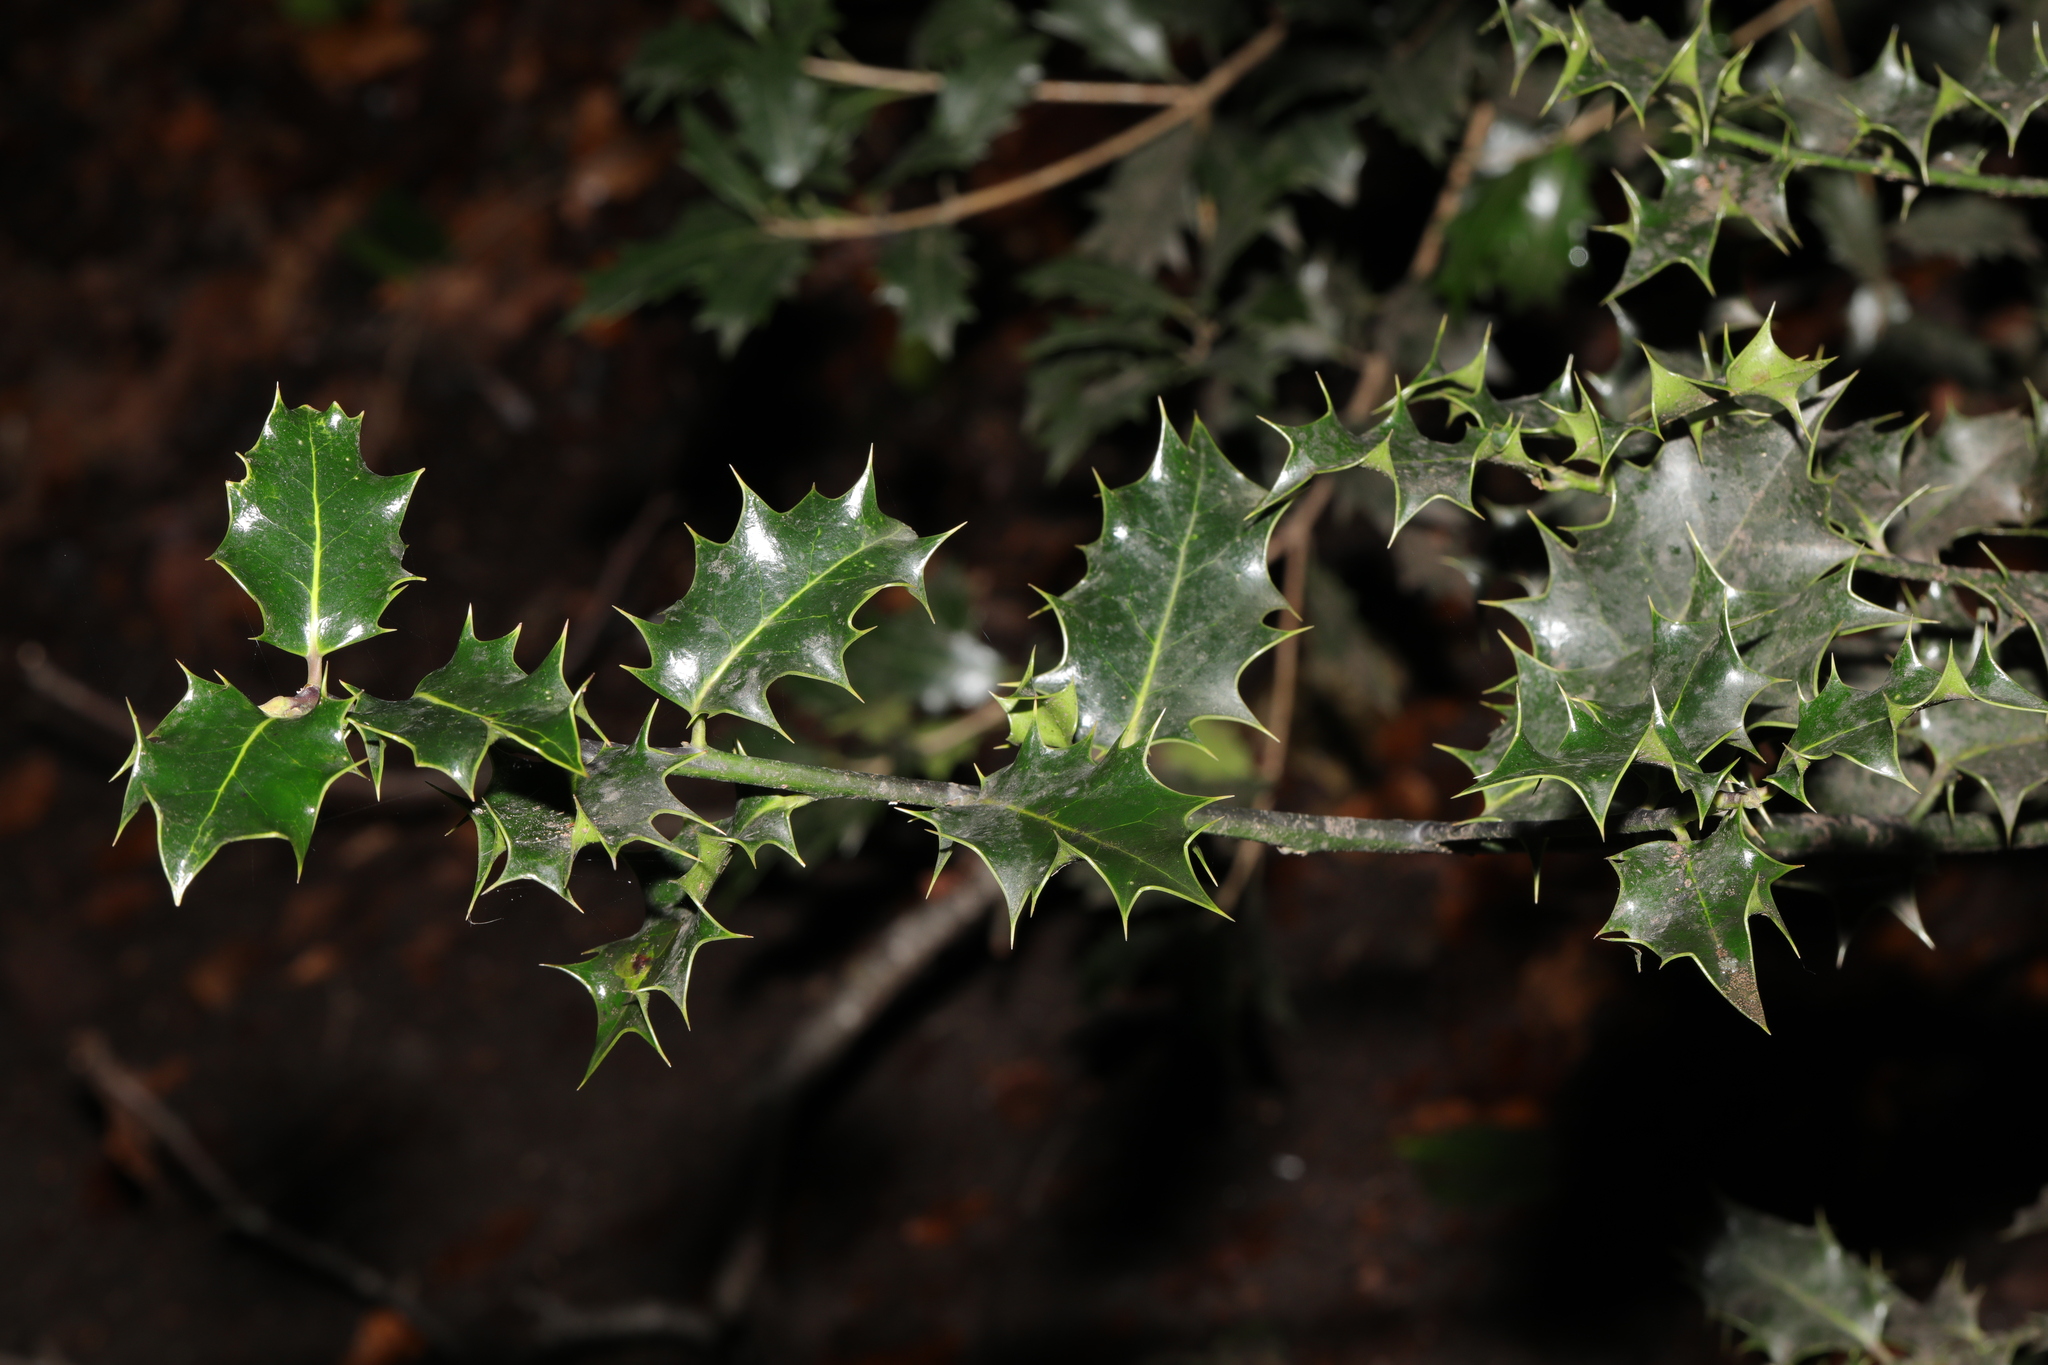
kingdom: Plantae
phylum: Tracheophyta
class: Magnoliopsida
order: Aquifoliales
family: Aquifoliaceae
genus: Ilex
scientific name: Ilex aquifolium
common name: English holly
